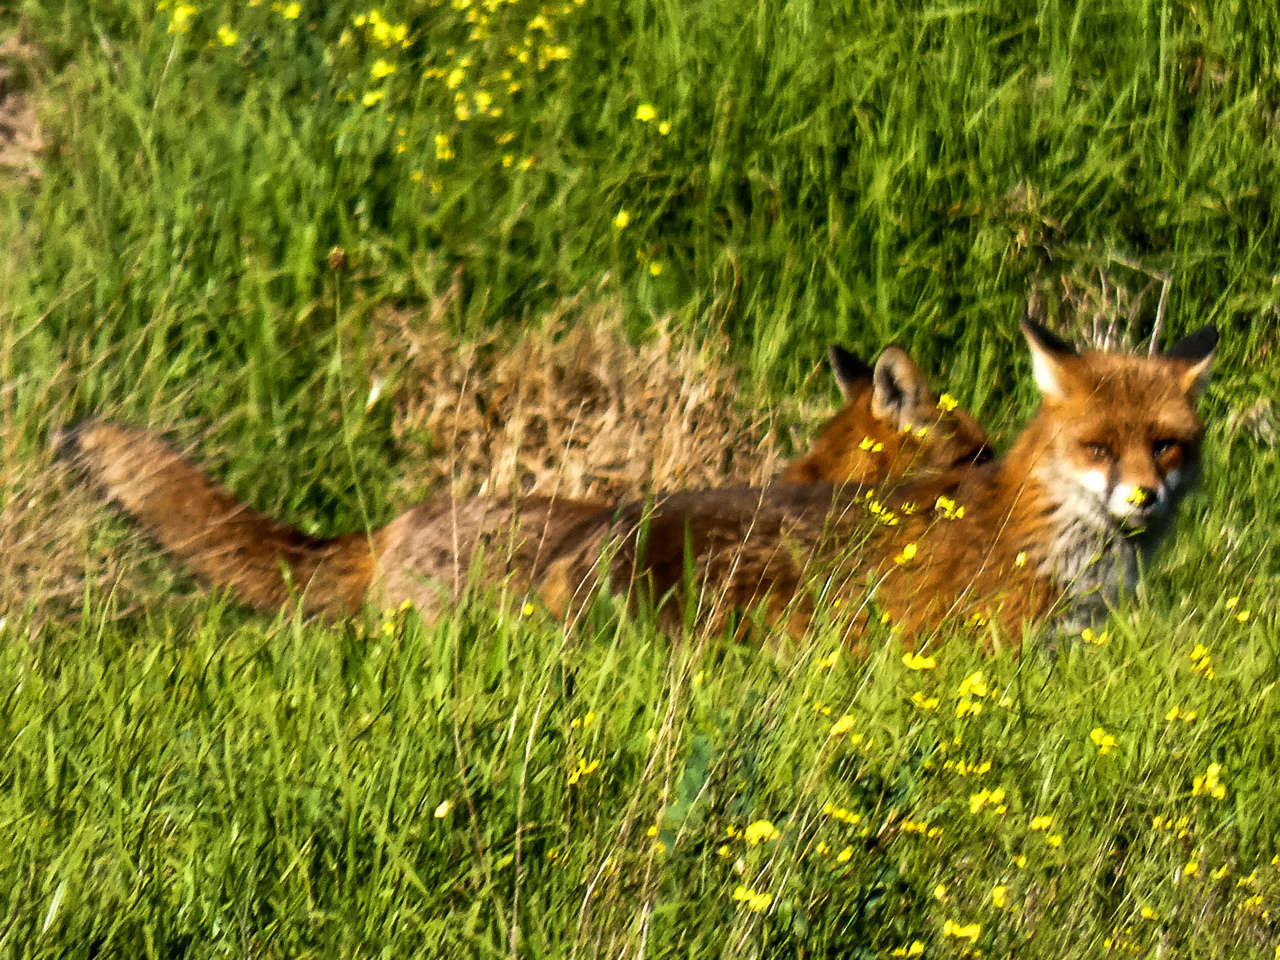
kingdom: Animalia
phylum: Chordata
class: Mammalia
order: Carnivora
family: Canidae
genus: Vulpes
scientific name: Vulpes vulpes
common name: Red fox
